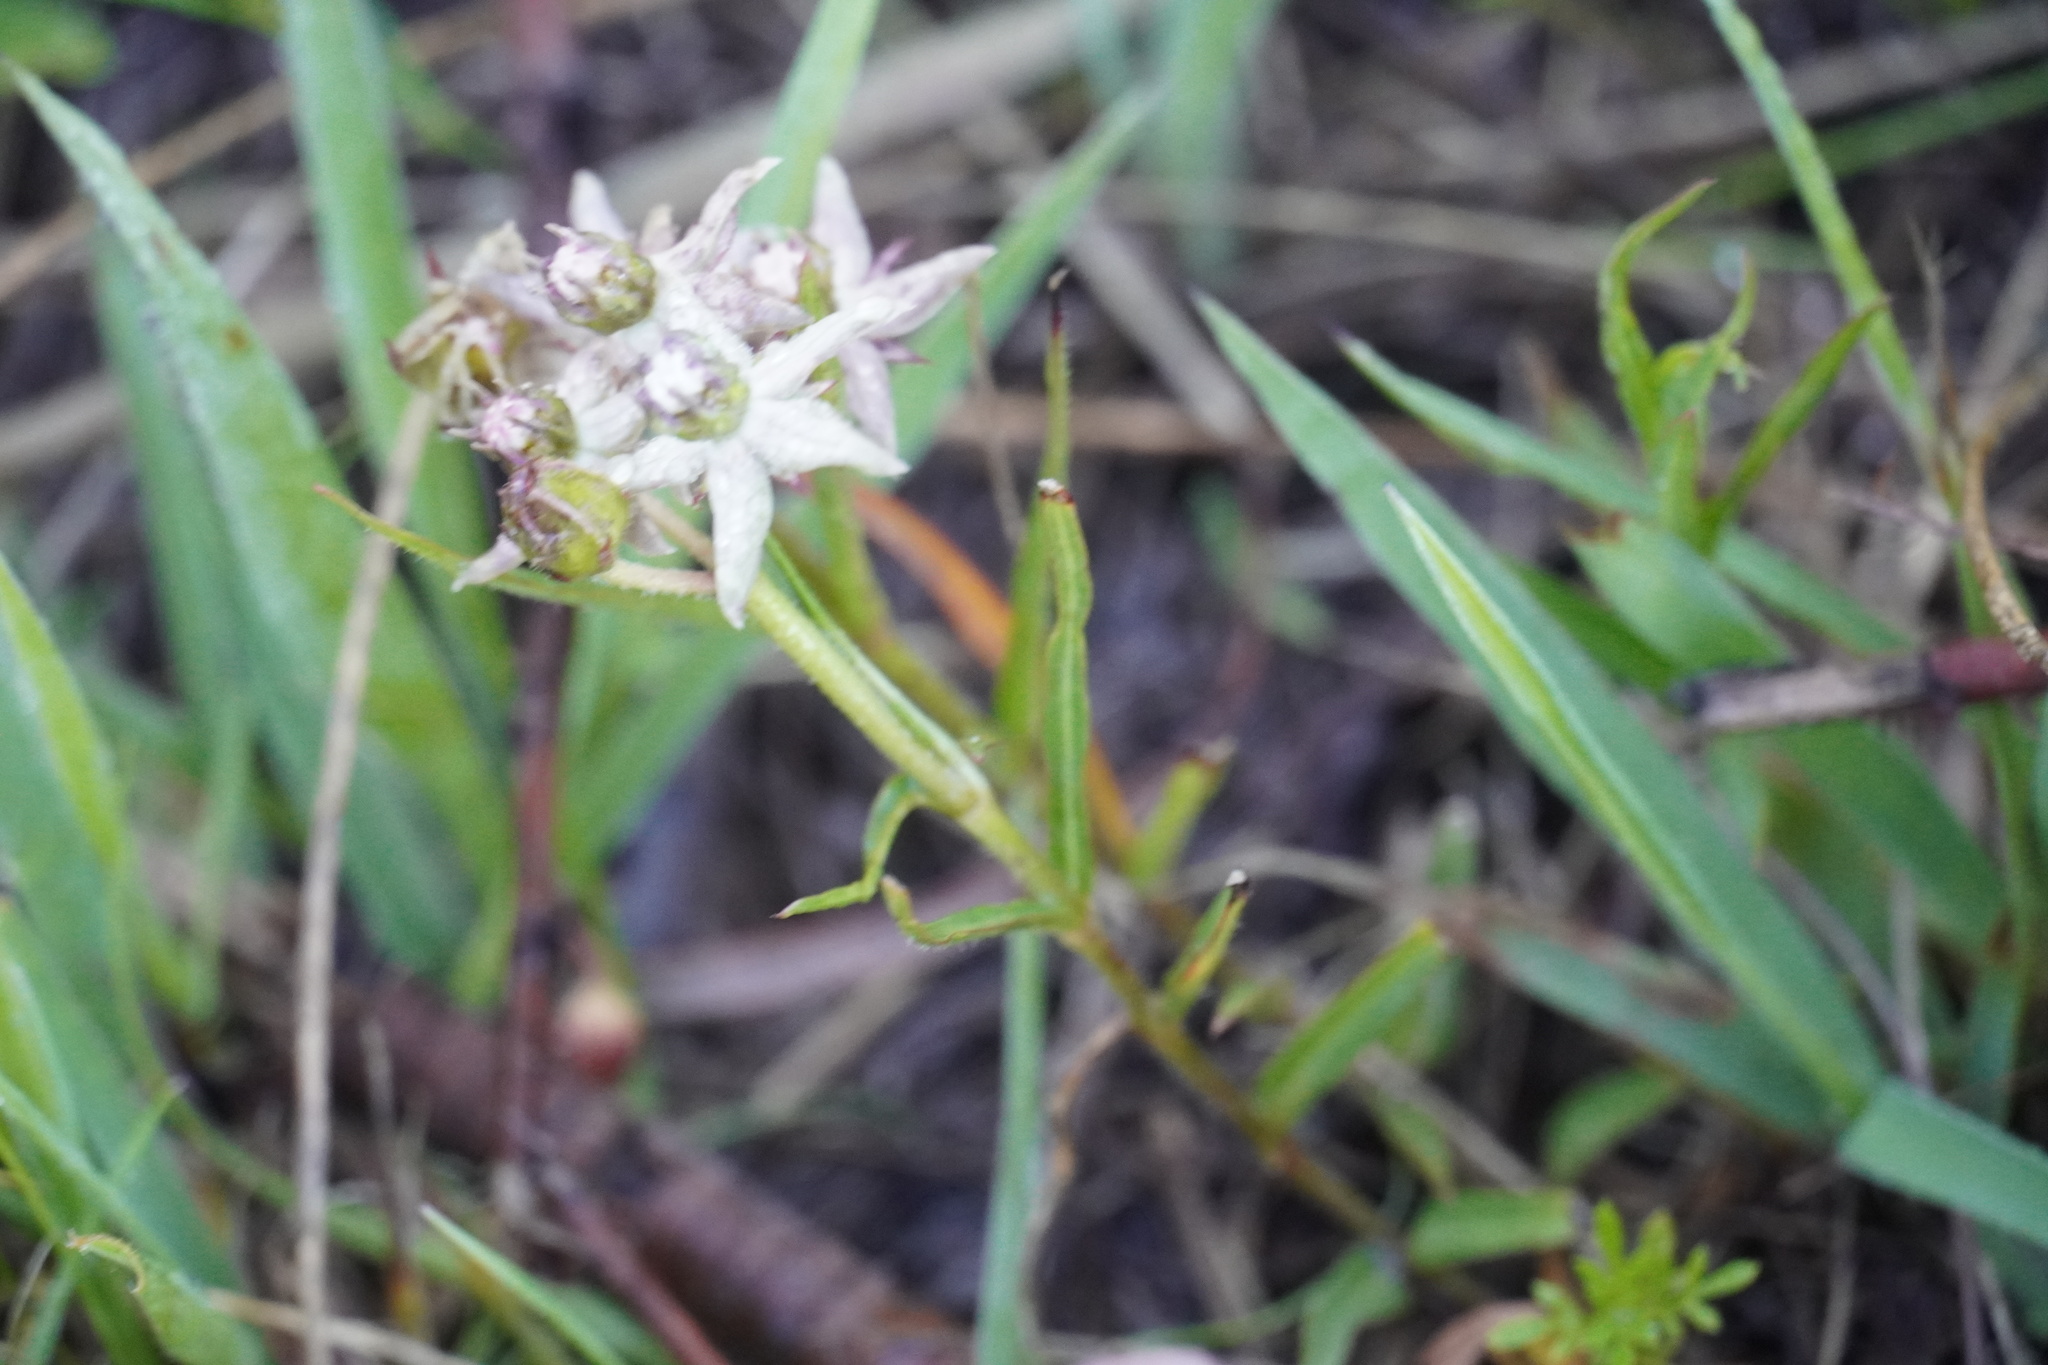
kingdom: Plantae
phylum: Tracheophyta
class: Magnoliopsida
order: Gentianales
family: Apocynaceae
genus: Asclepias
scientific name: Asclepias gibba
